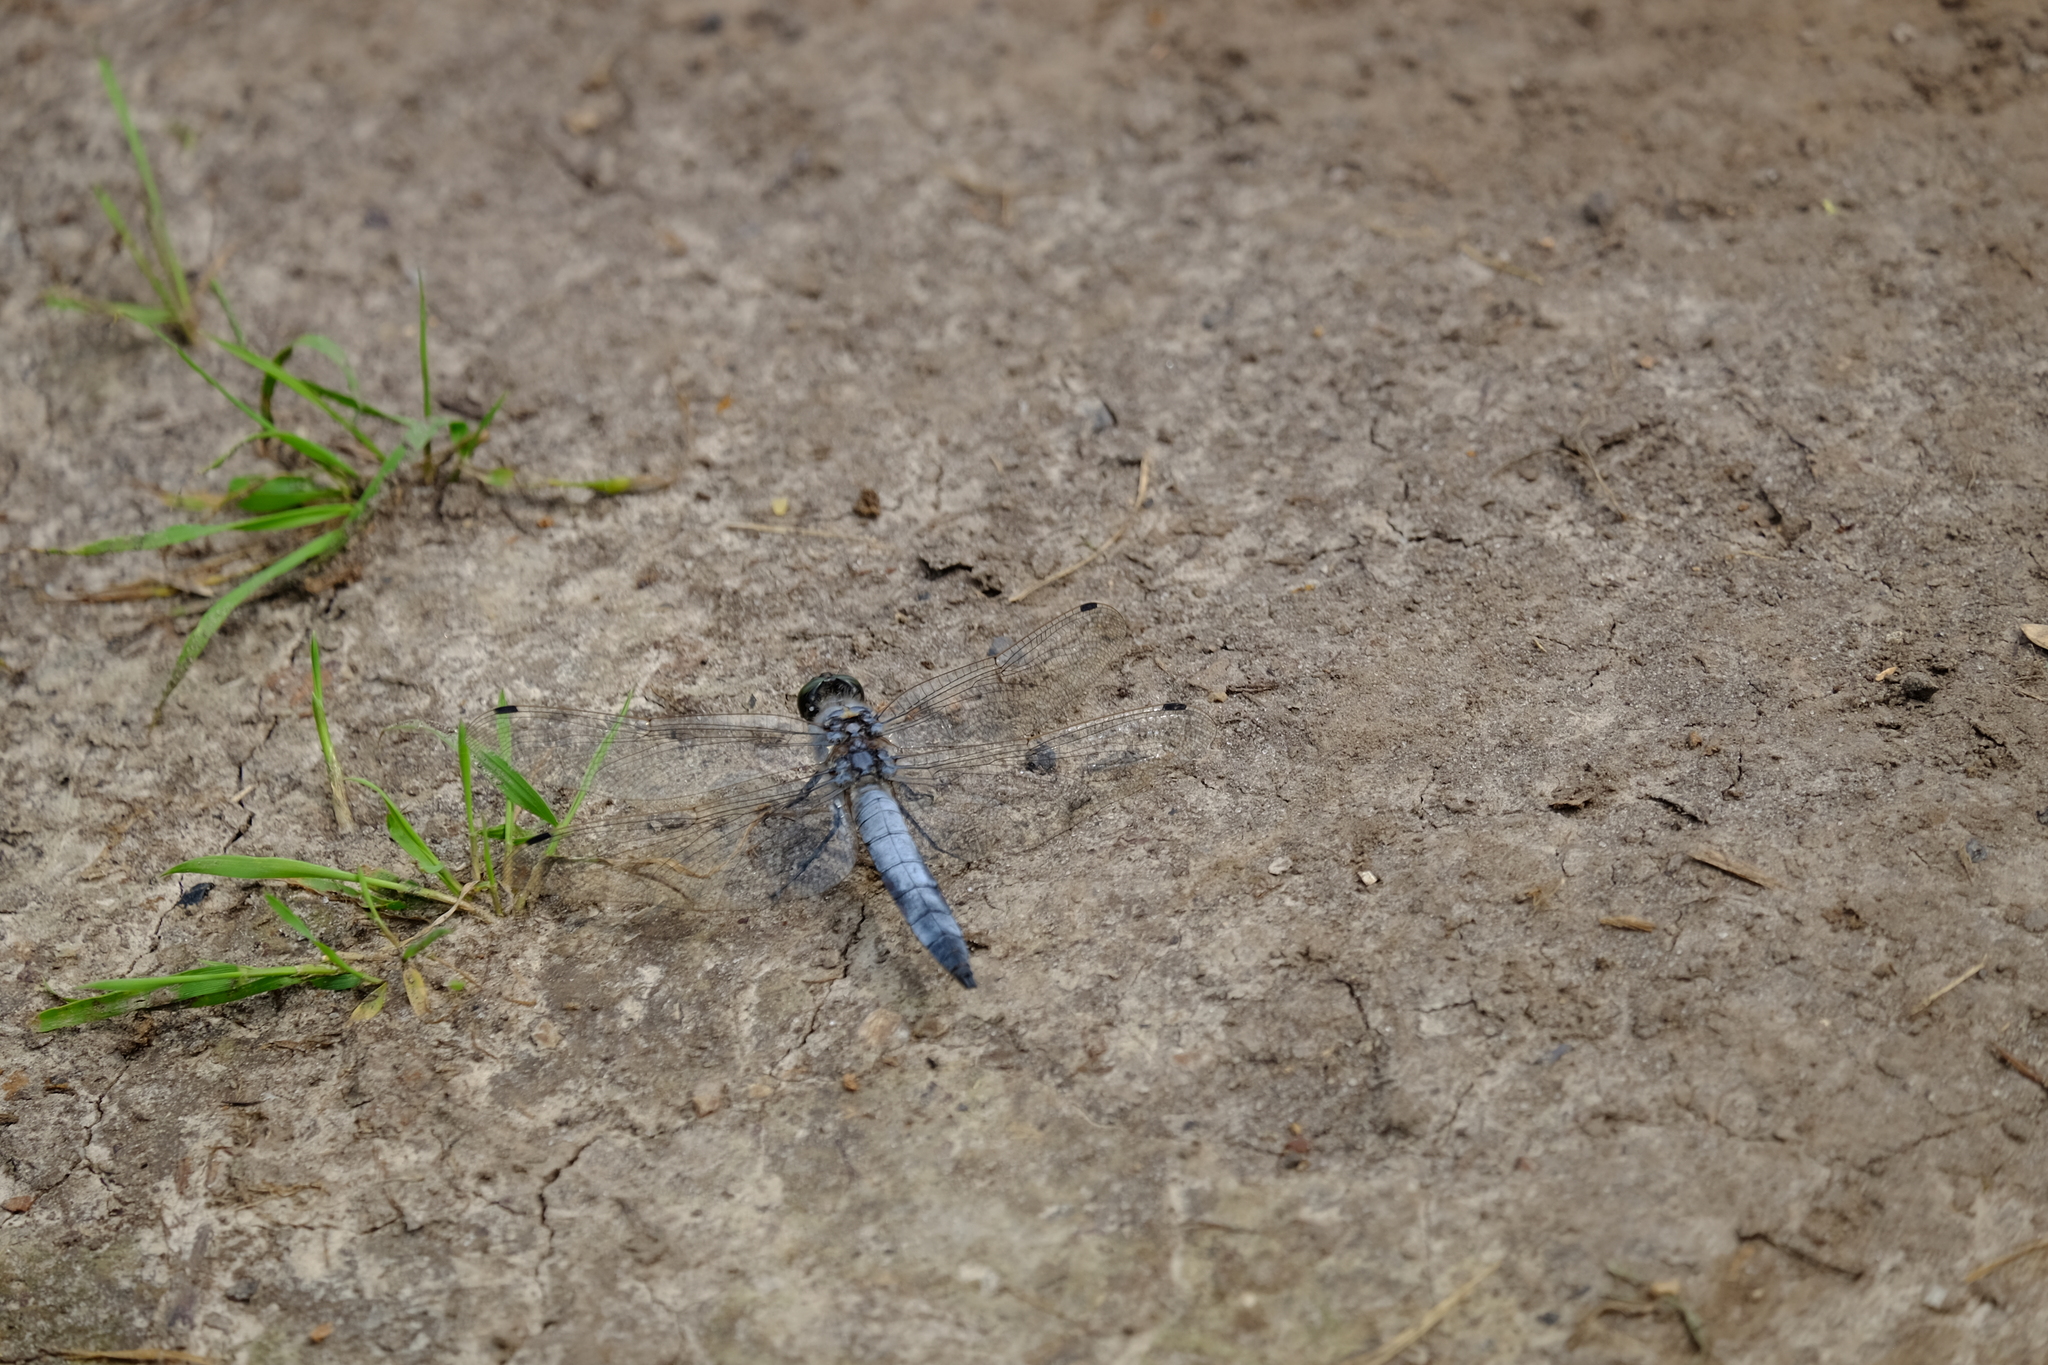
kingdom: Animalia
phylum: Arthropoda
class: Insecta
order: Odonata
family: Libellulidae
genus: Orthetrum
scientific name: Orthetrum cancellatum
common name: Black-tailed skimmer
